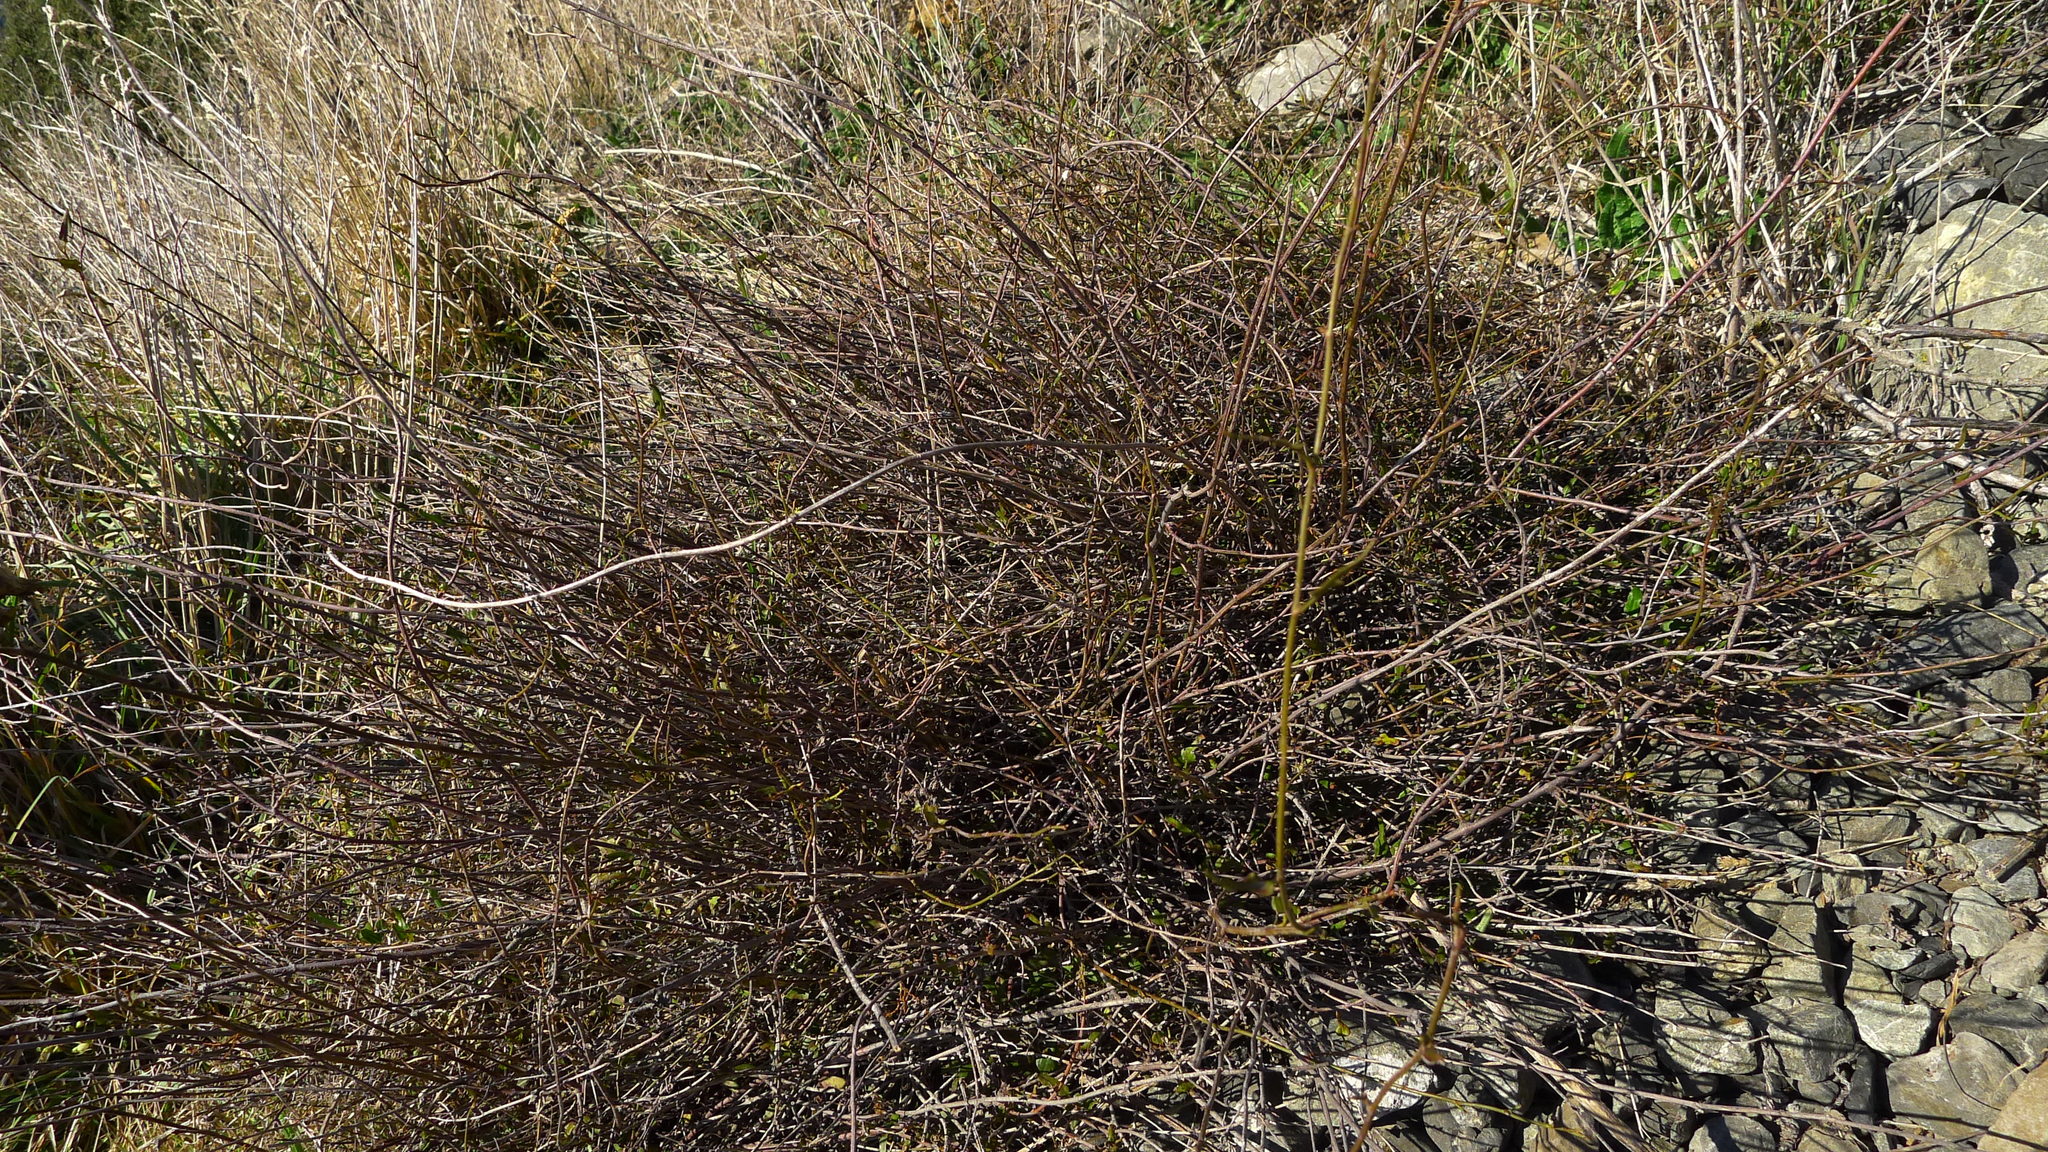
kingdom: Plantae
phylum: Tracheophyta
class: Magnoliopsida
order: Caryophyllales
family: Polygonaceae
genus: Muehlenbeckia
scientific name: Muehlenbeckia
